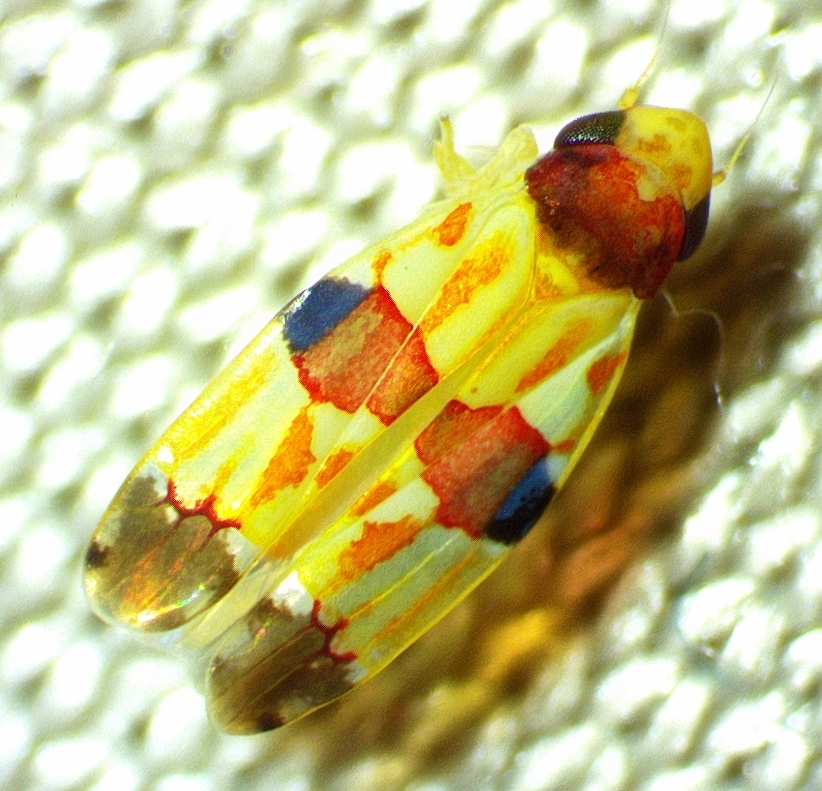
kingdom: Animalia
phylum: Arthropoda
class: Insecta
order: Hemiptera
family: Cicadellidae
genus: Erythroneura
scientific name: Erythroneura diva
